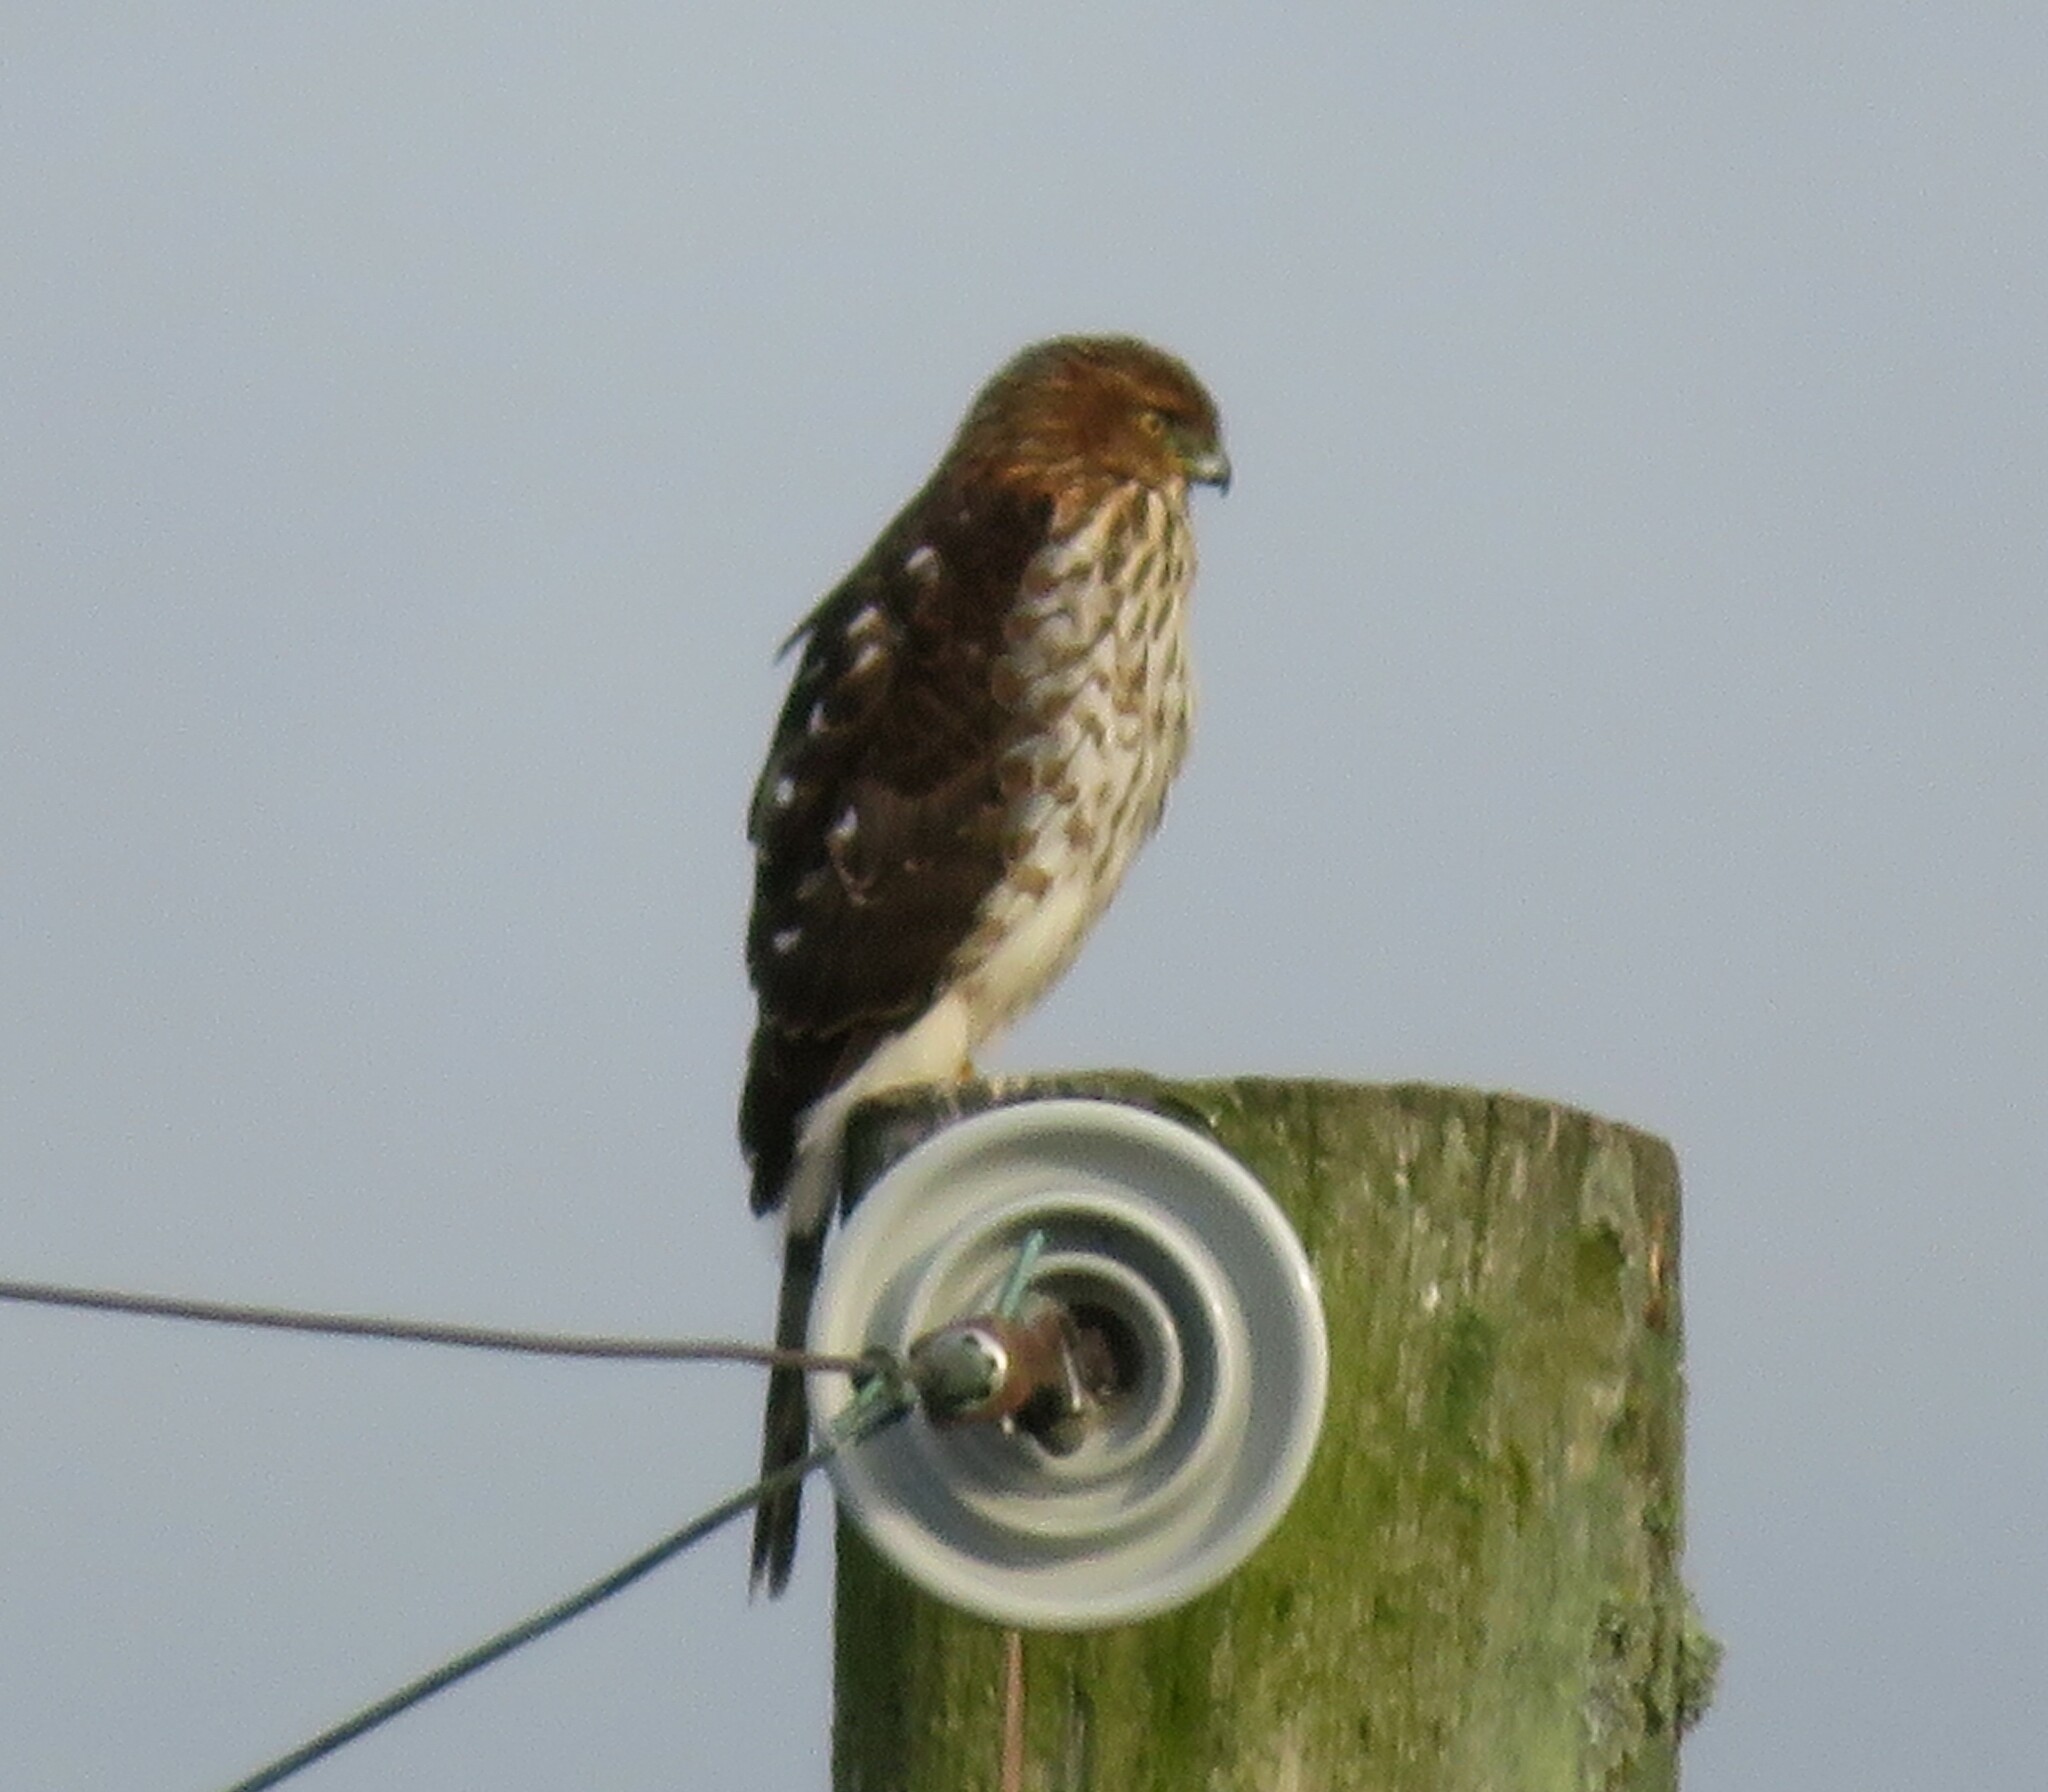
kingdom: Animalia
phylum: Chordata
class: Aves
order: Accipitriformes
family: Accipitridae
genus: Accipiter
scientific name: Accipiter cooperii
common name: Cooper's hawk
